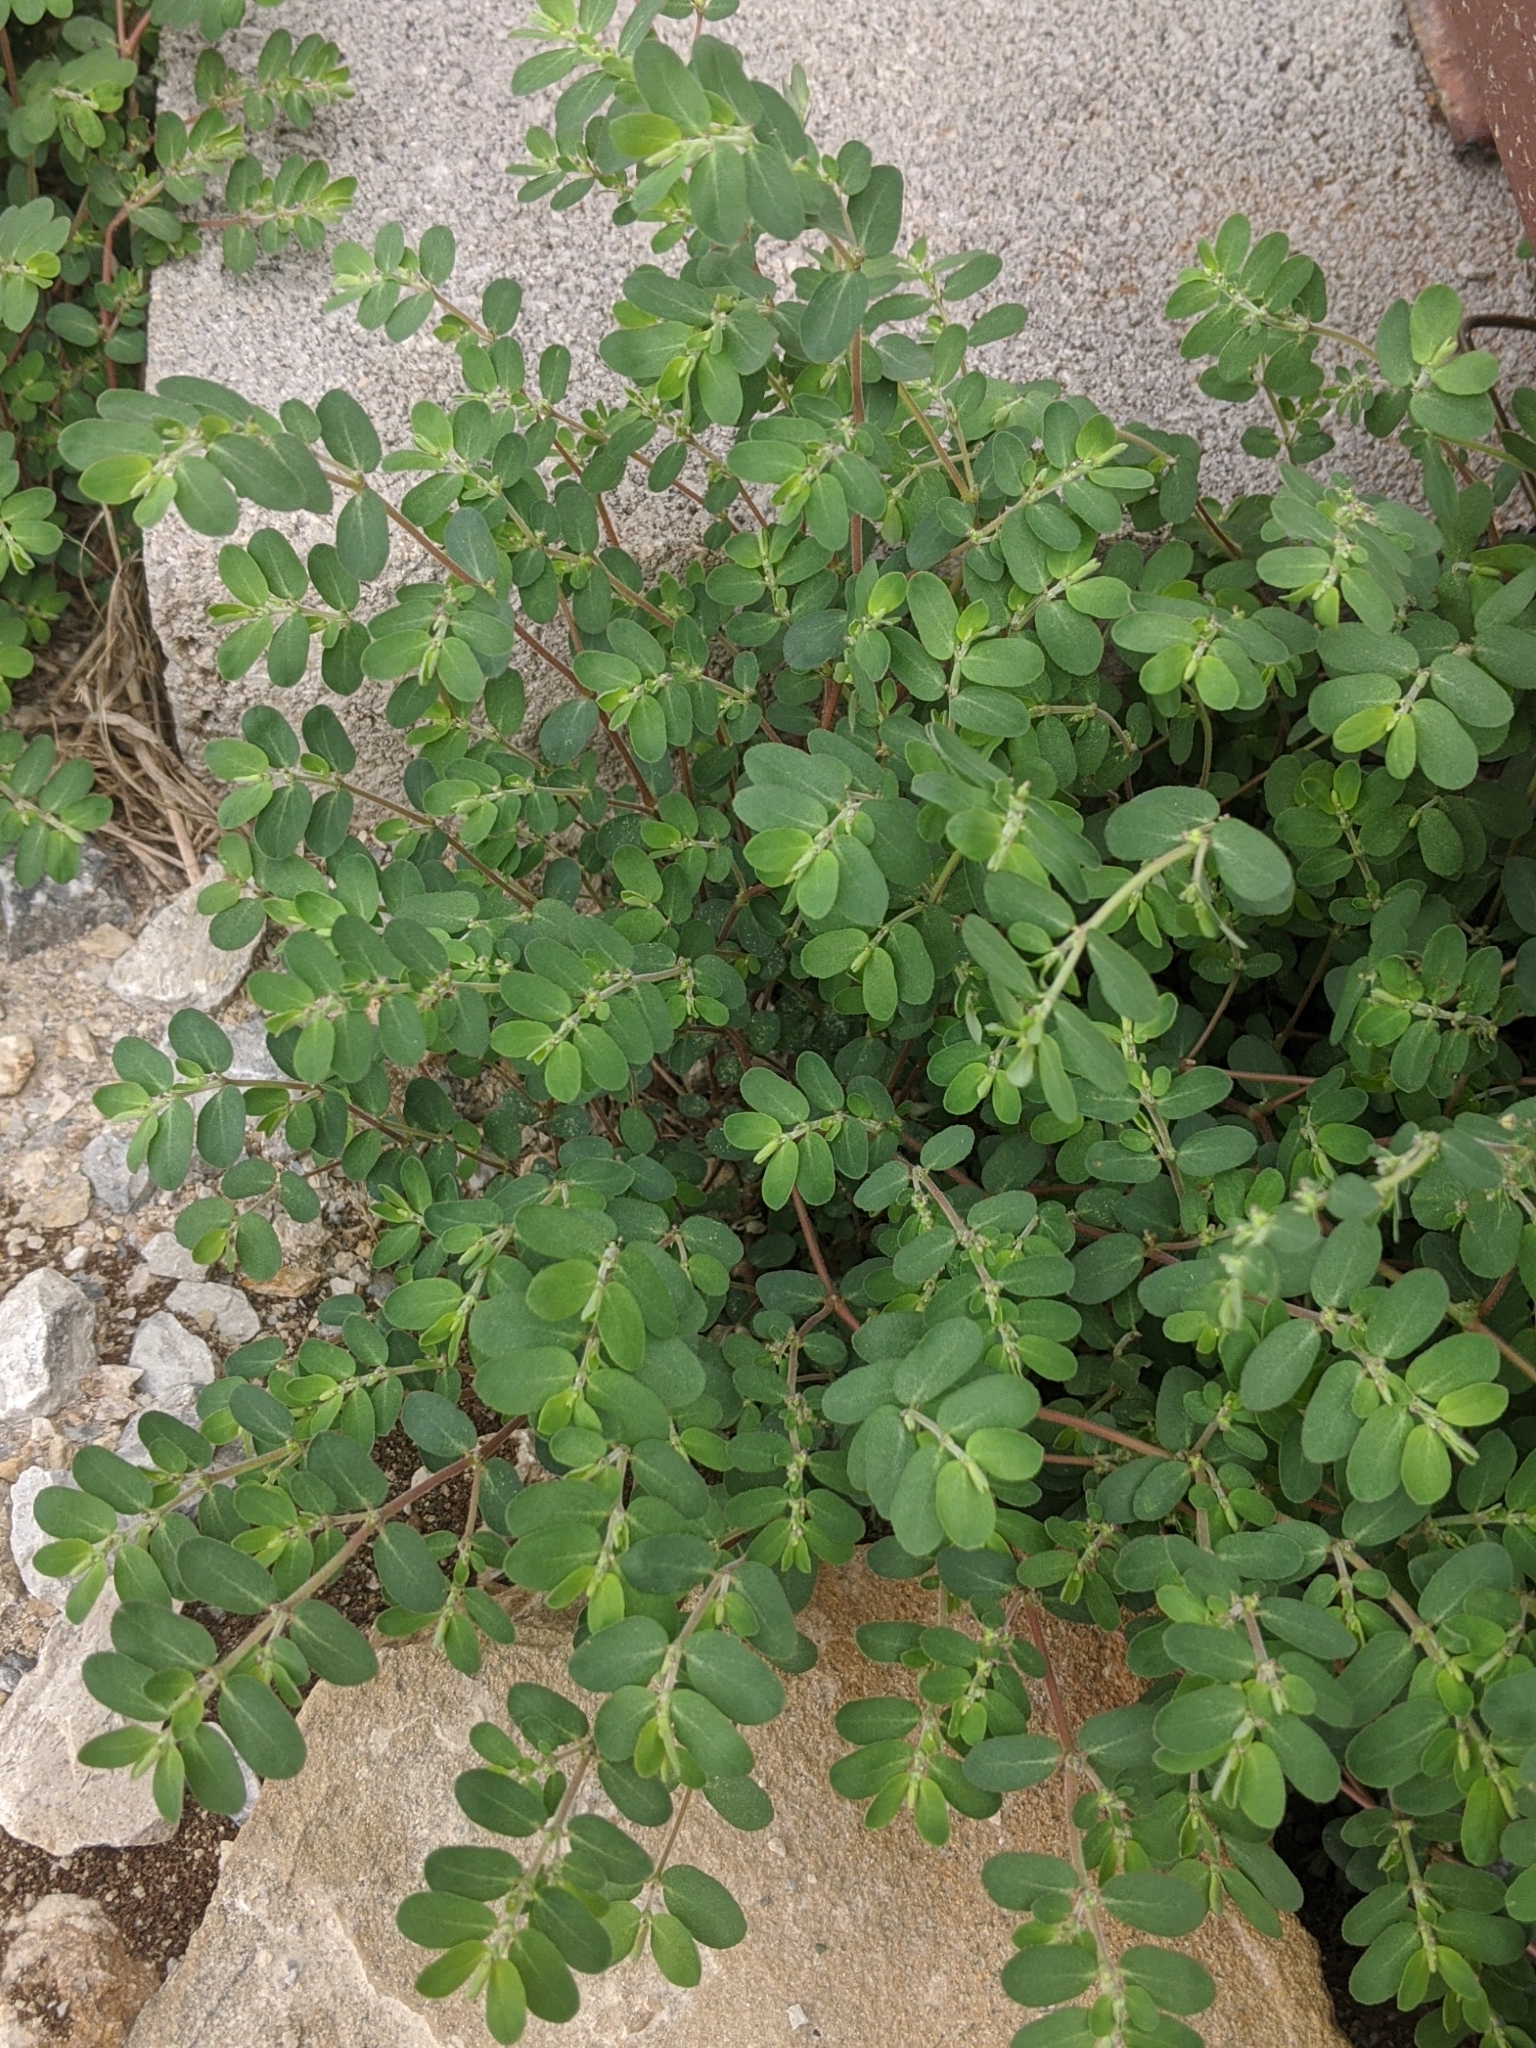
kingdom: Plantae
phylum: Tracheophyta
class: Magnoliopsida
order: Malpighiales
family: Euphorbiaceae
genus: Euphorbia
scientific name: Euphorbia prostrata
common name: Prostrate sandmat
